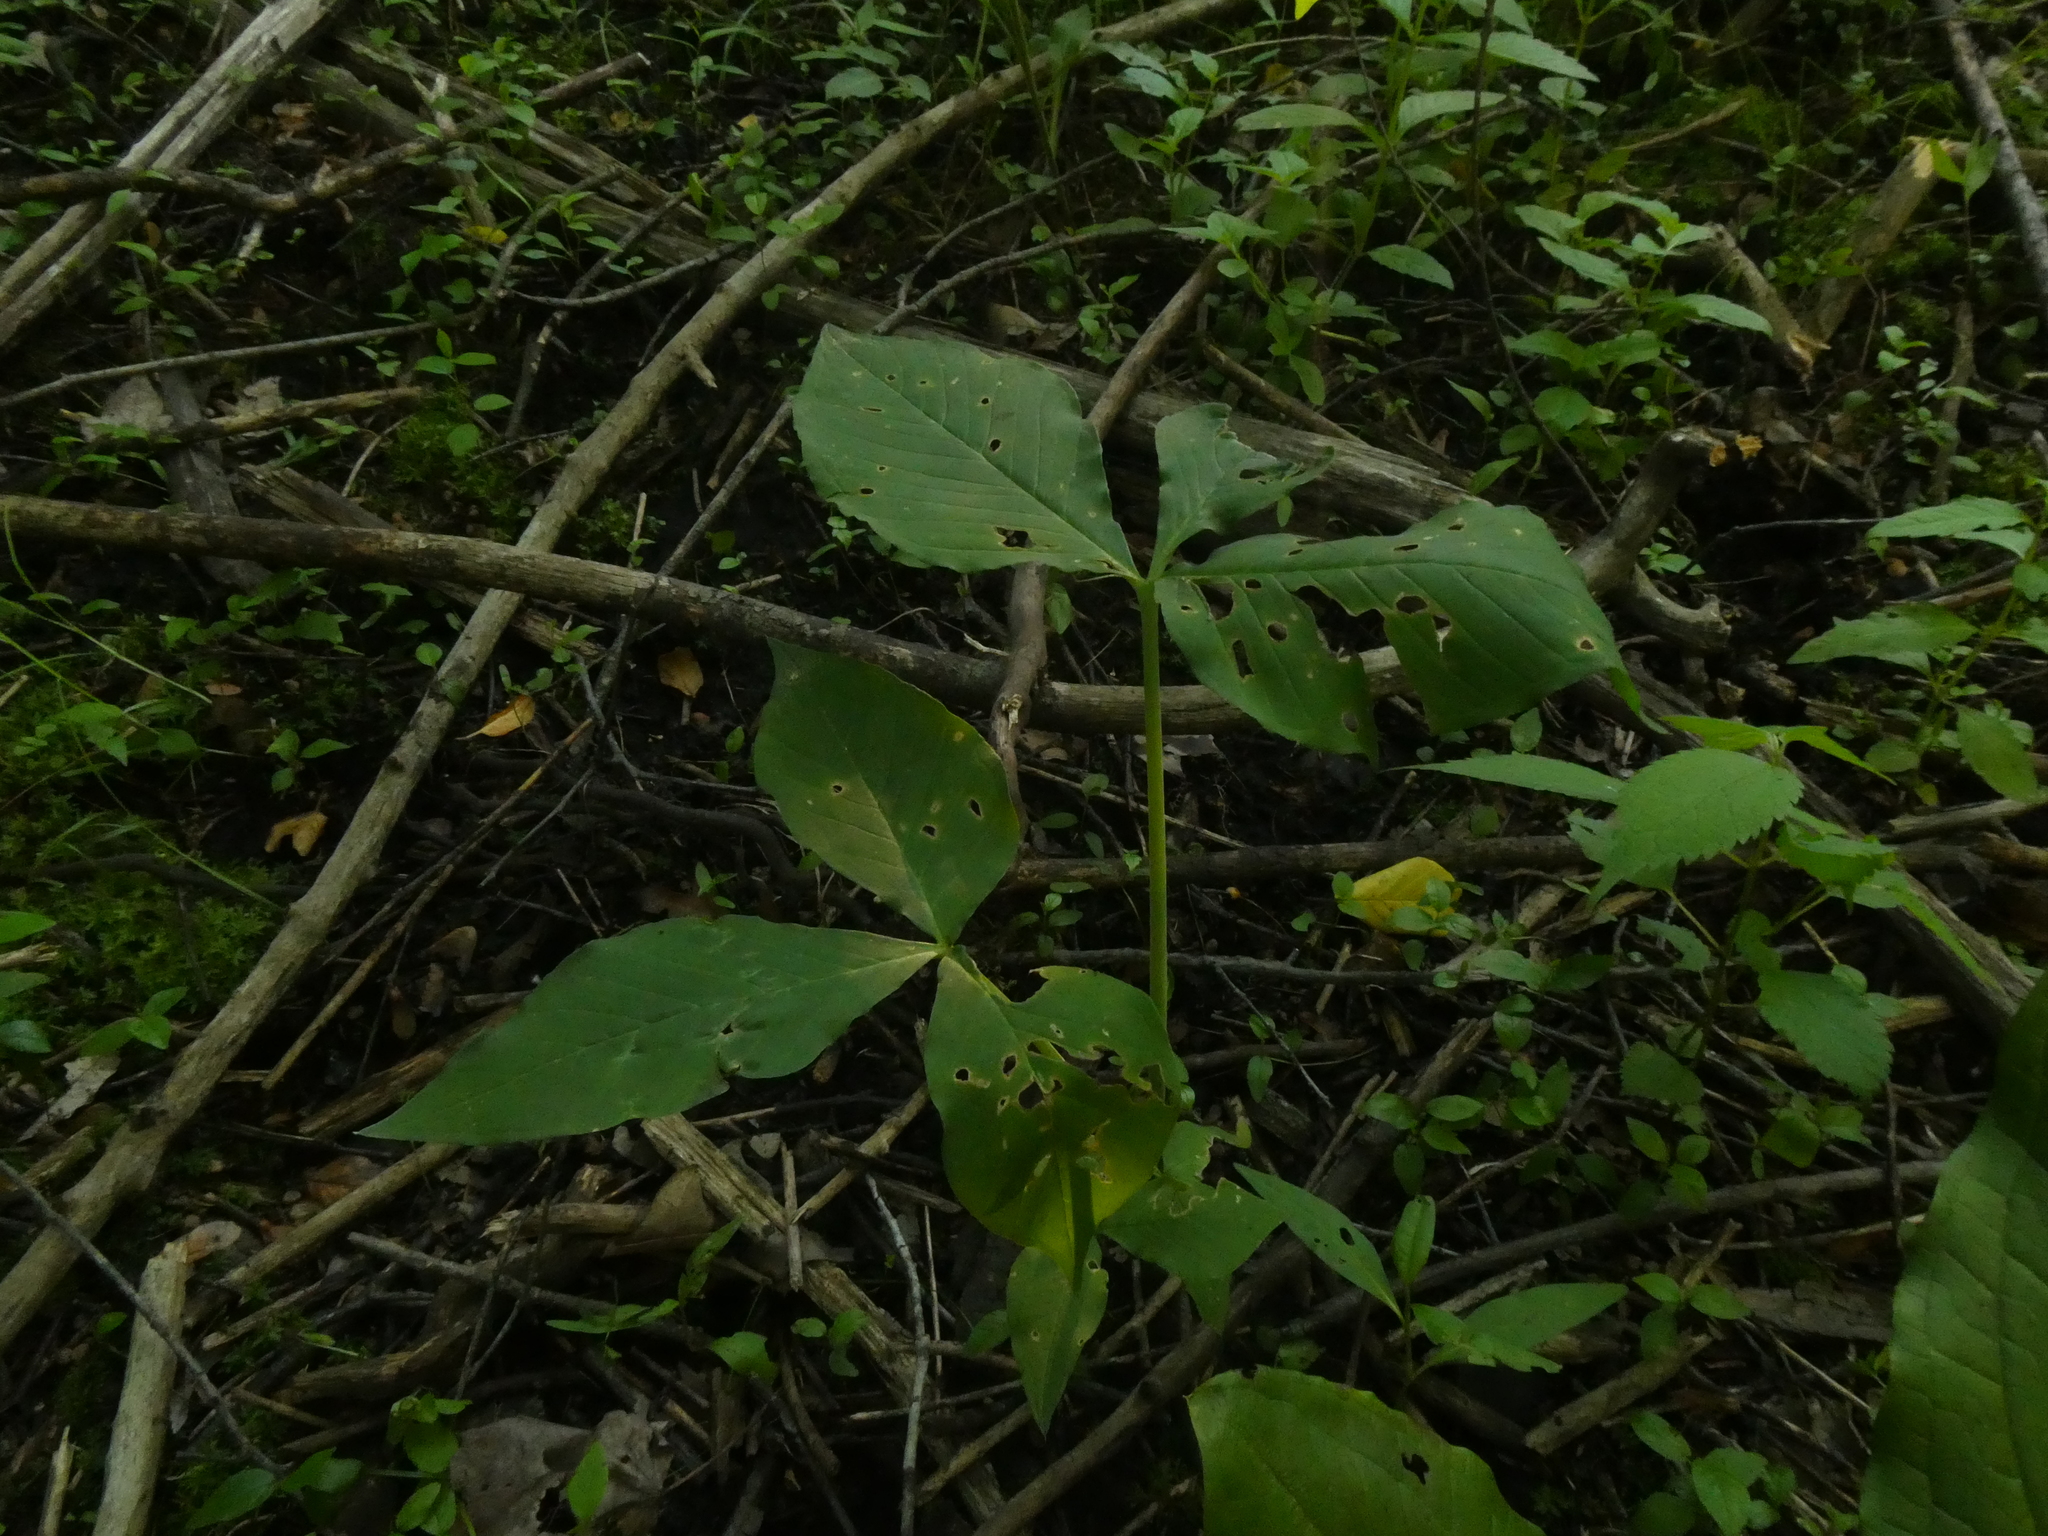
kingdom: Plantae
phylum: Tracheophyta
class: Liliopsida
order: Alismatales
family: Araceae
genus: Arisaema
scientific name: Arisaema triphyllum
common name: Jack-in-the-pulpit
